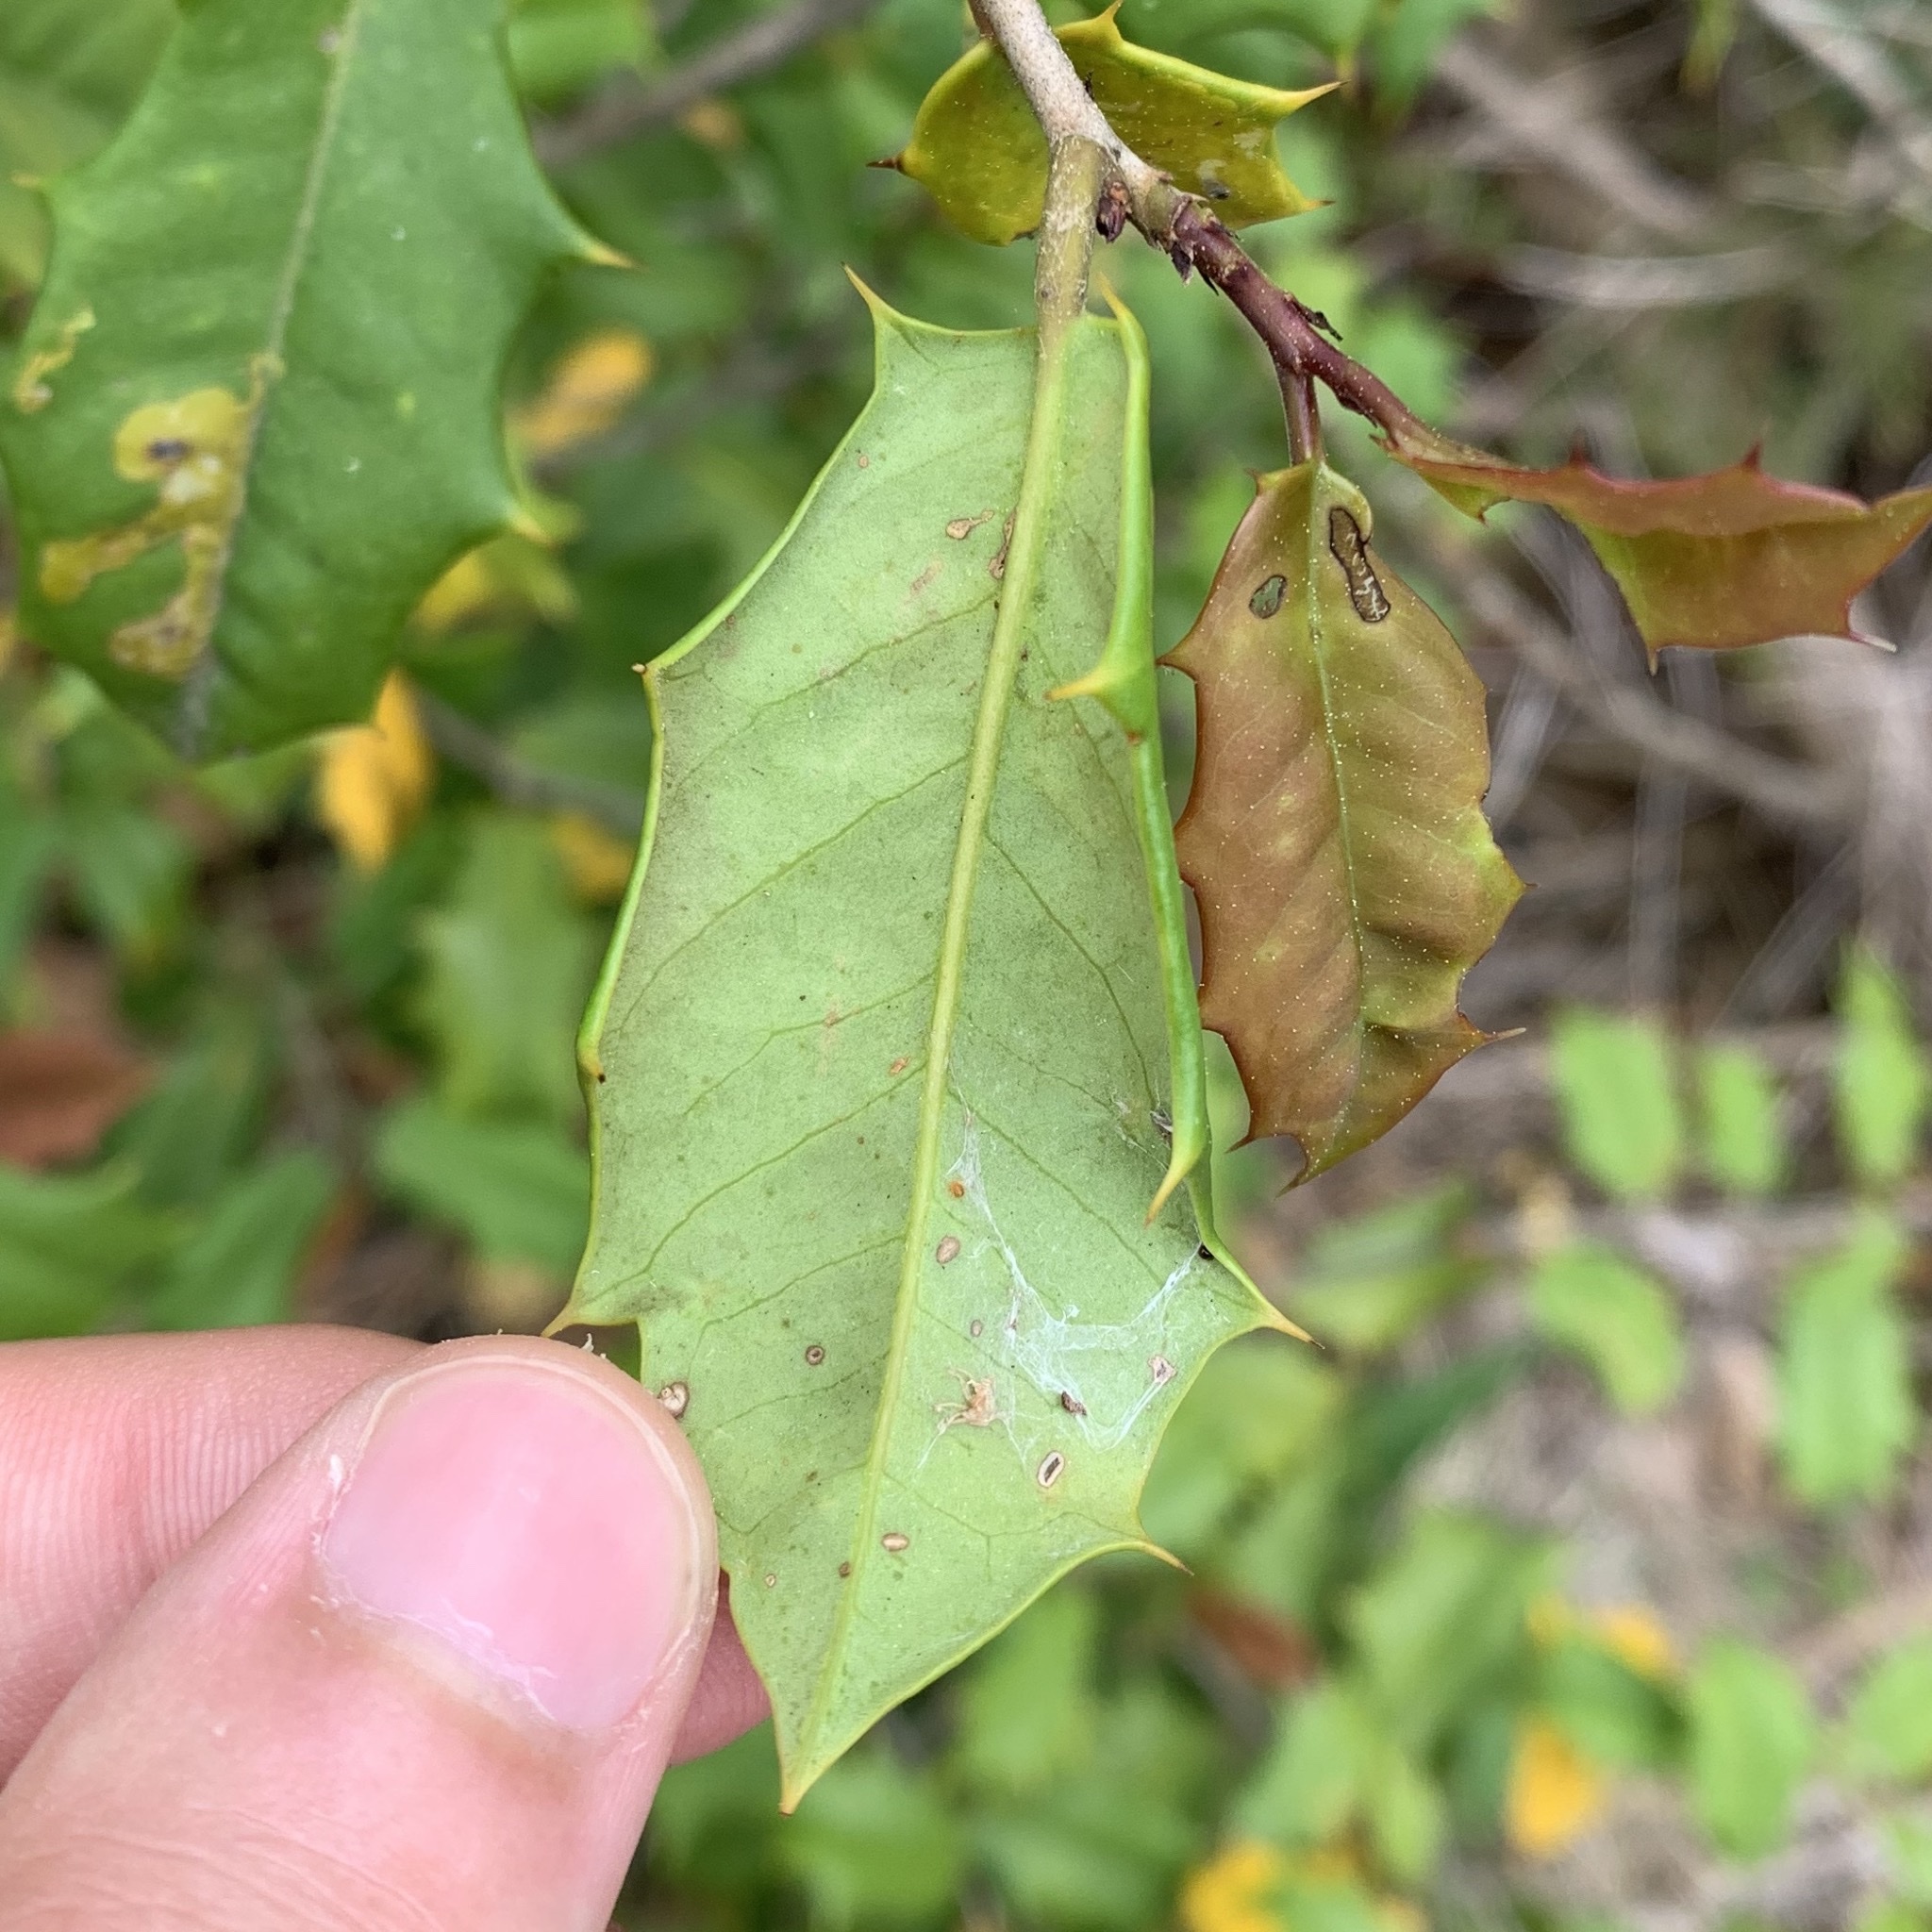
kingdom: Animalia
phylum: Arthropoda
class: Insecta
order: Diptera
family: Agromyzidae
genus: Phytomyza
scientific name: Phytomyza ilicicola
